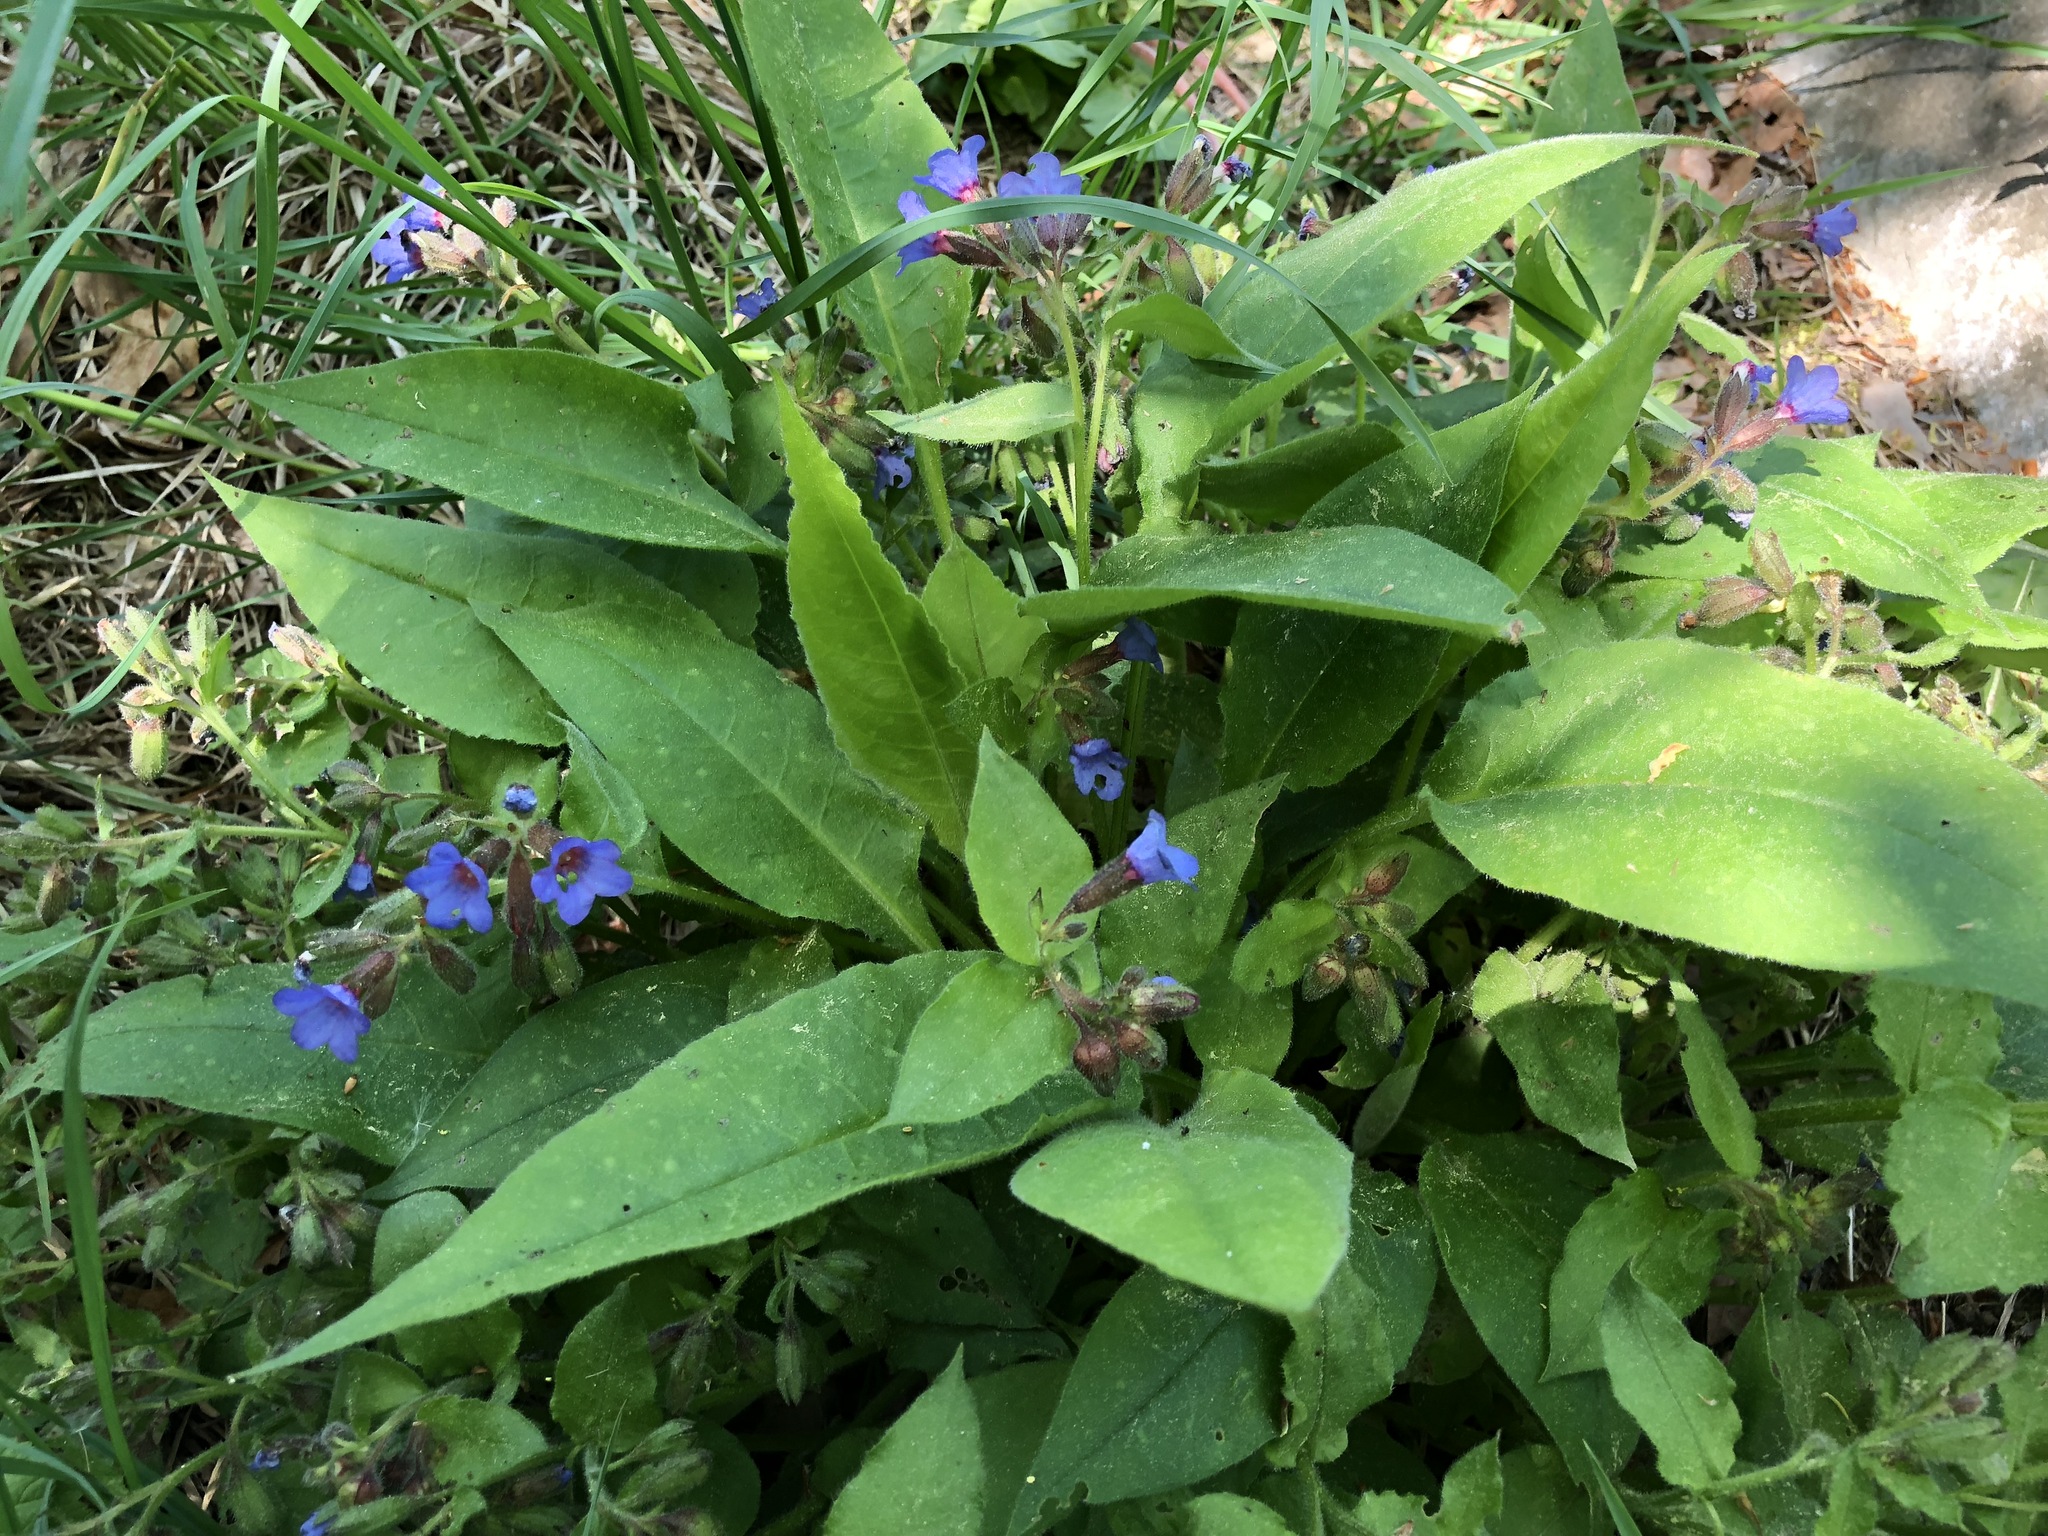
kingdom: Plantae
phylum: Tracheophyta
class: Magnoliopsida
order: Boraginales
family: Boraginaceae
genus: Pulmonaria
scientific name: Pulmonaria helvetica
